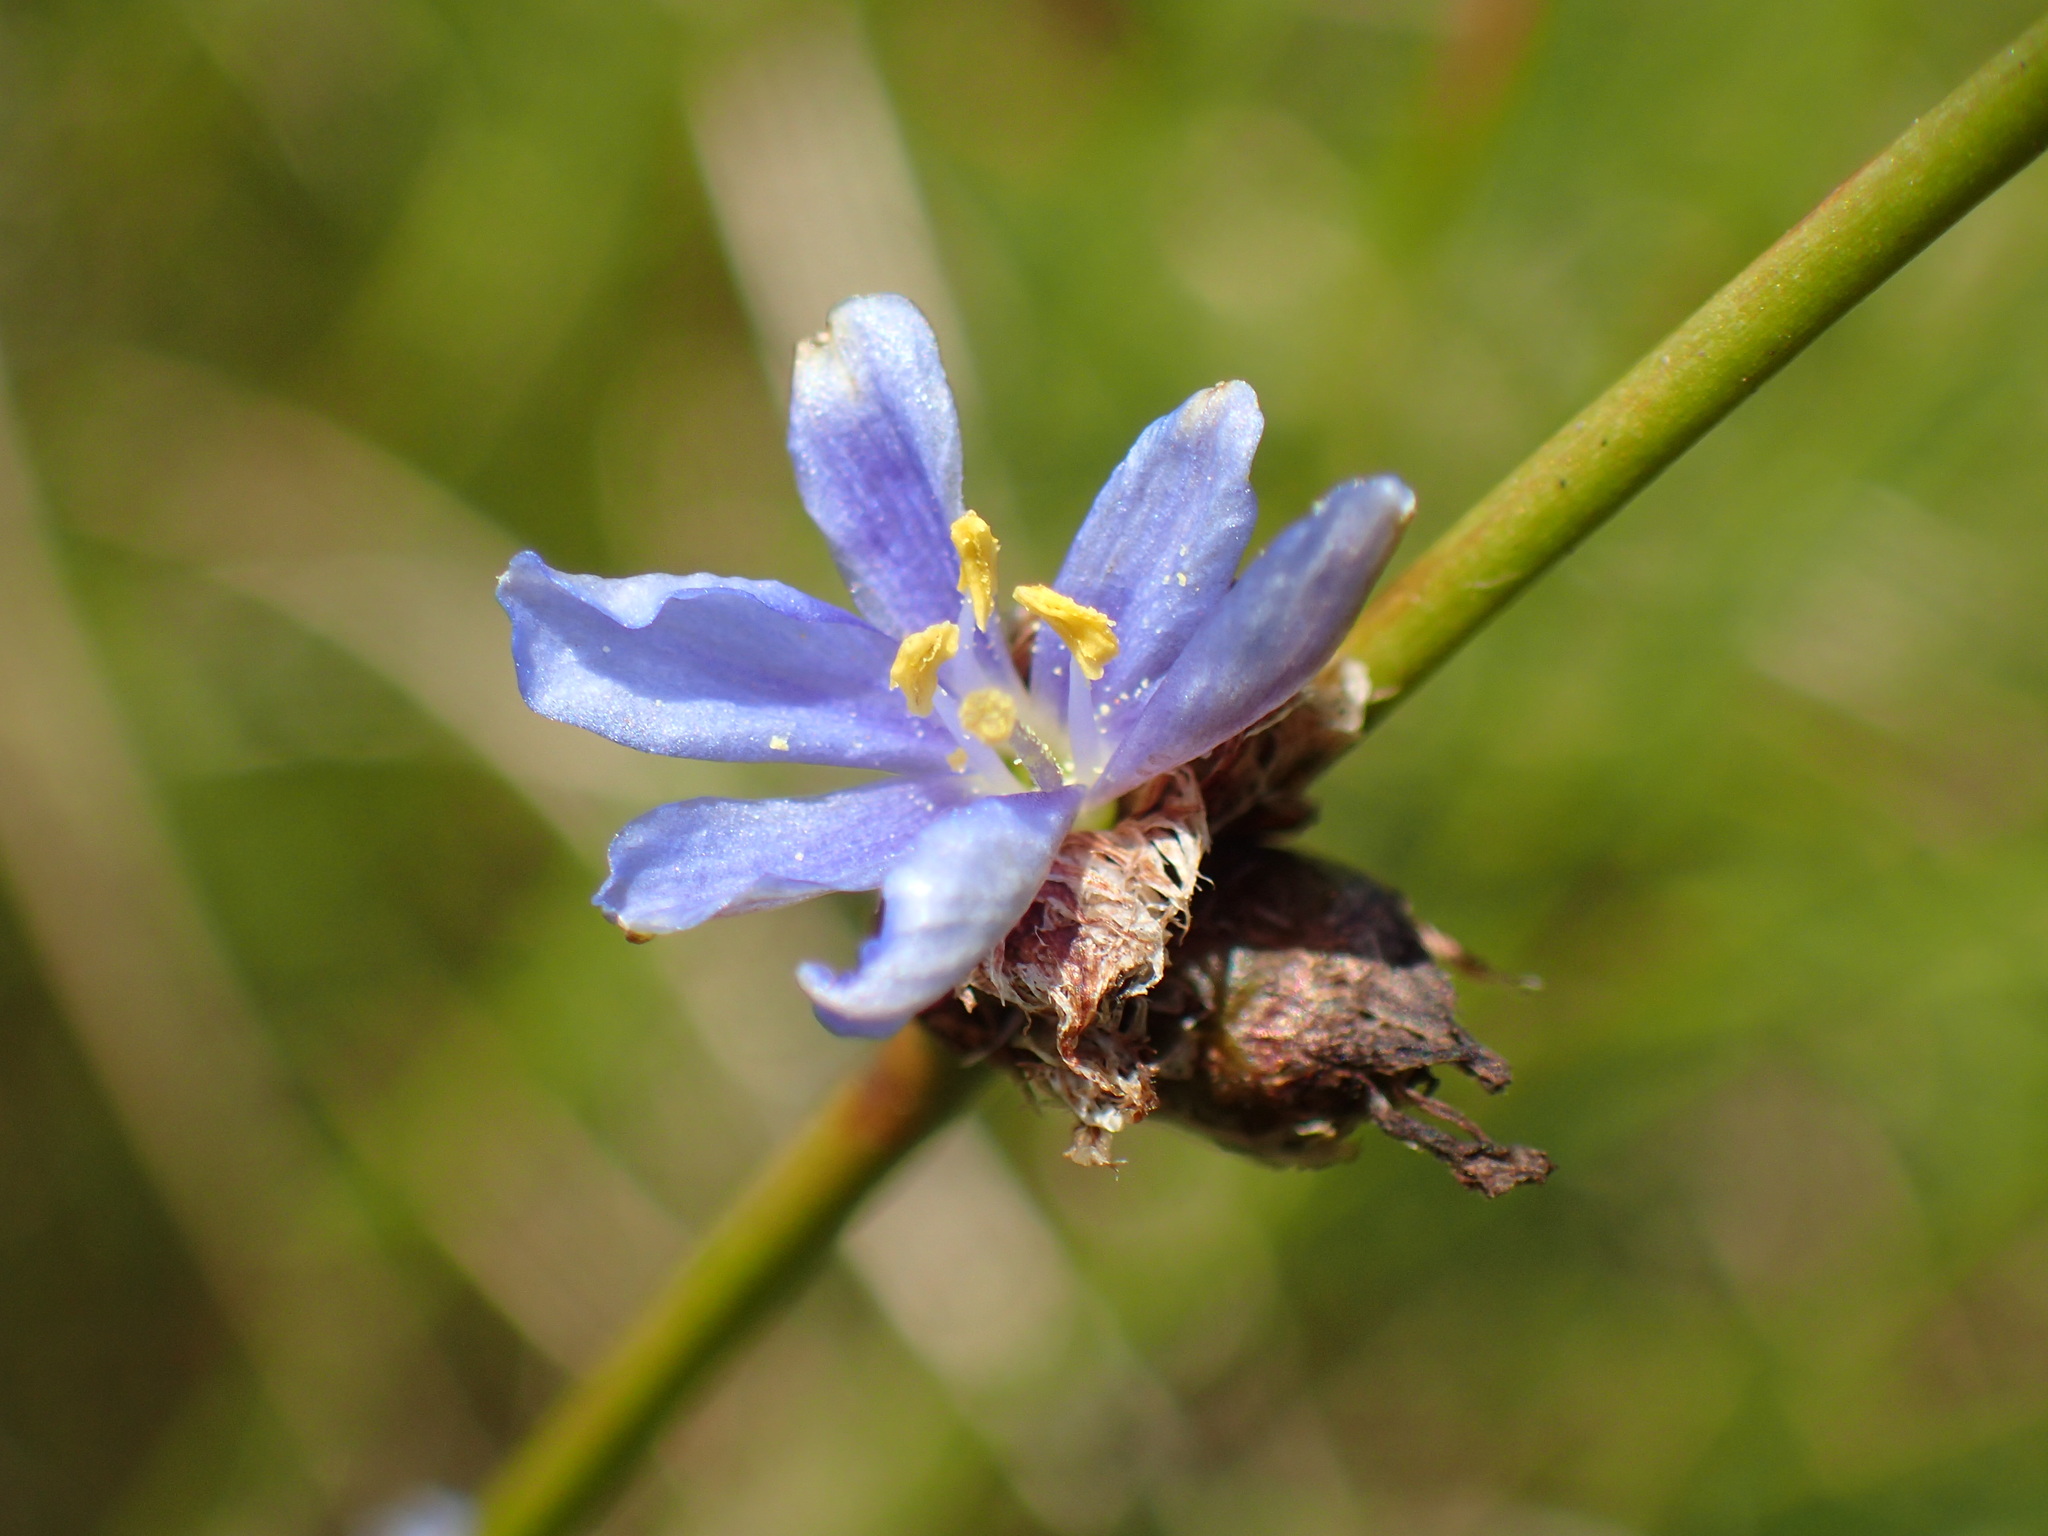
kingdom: Plantae
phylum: Tracheophyta
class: Liliopsida
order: Asparagales
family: Iridaceae
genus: Aristea
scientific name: Aristea torulosa
